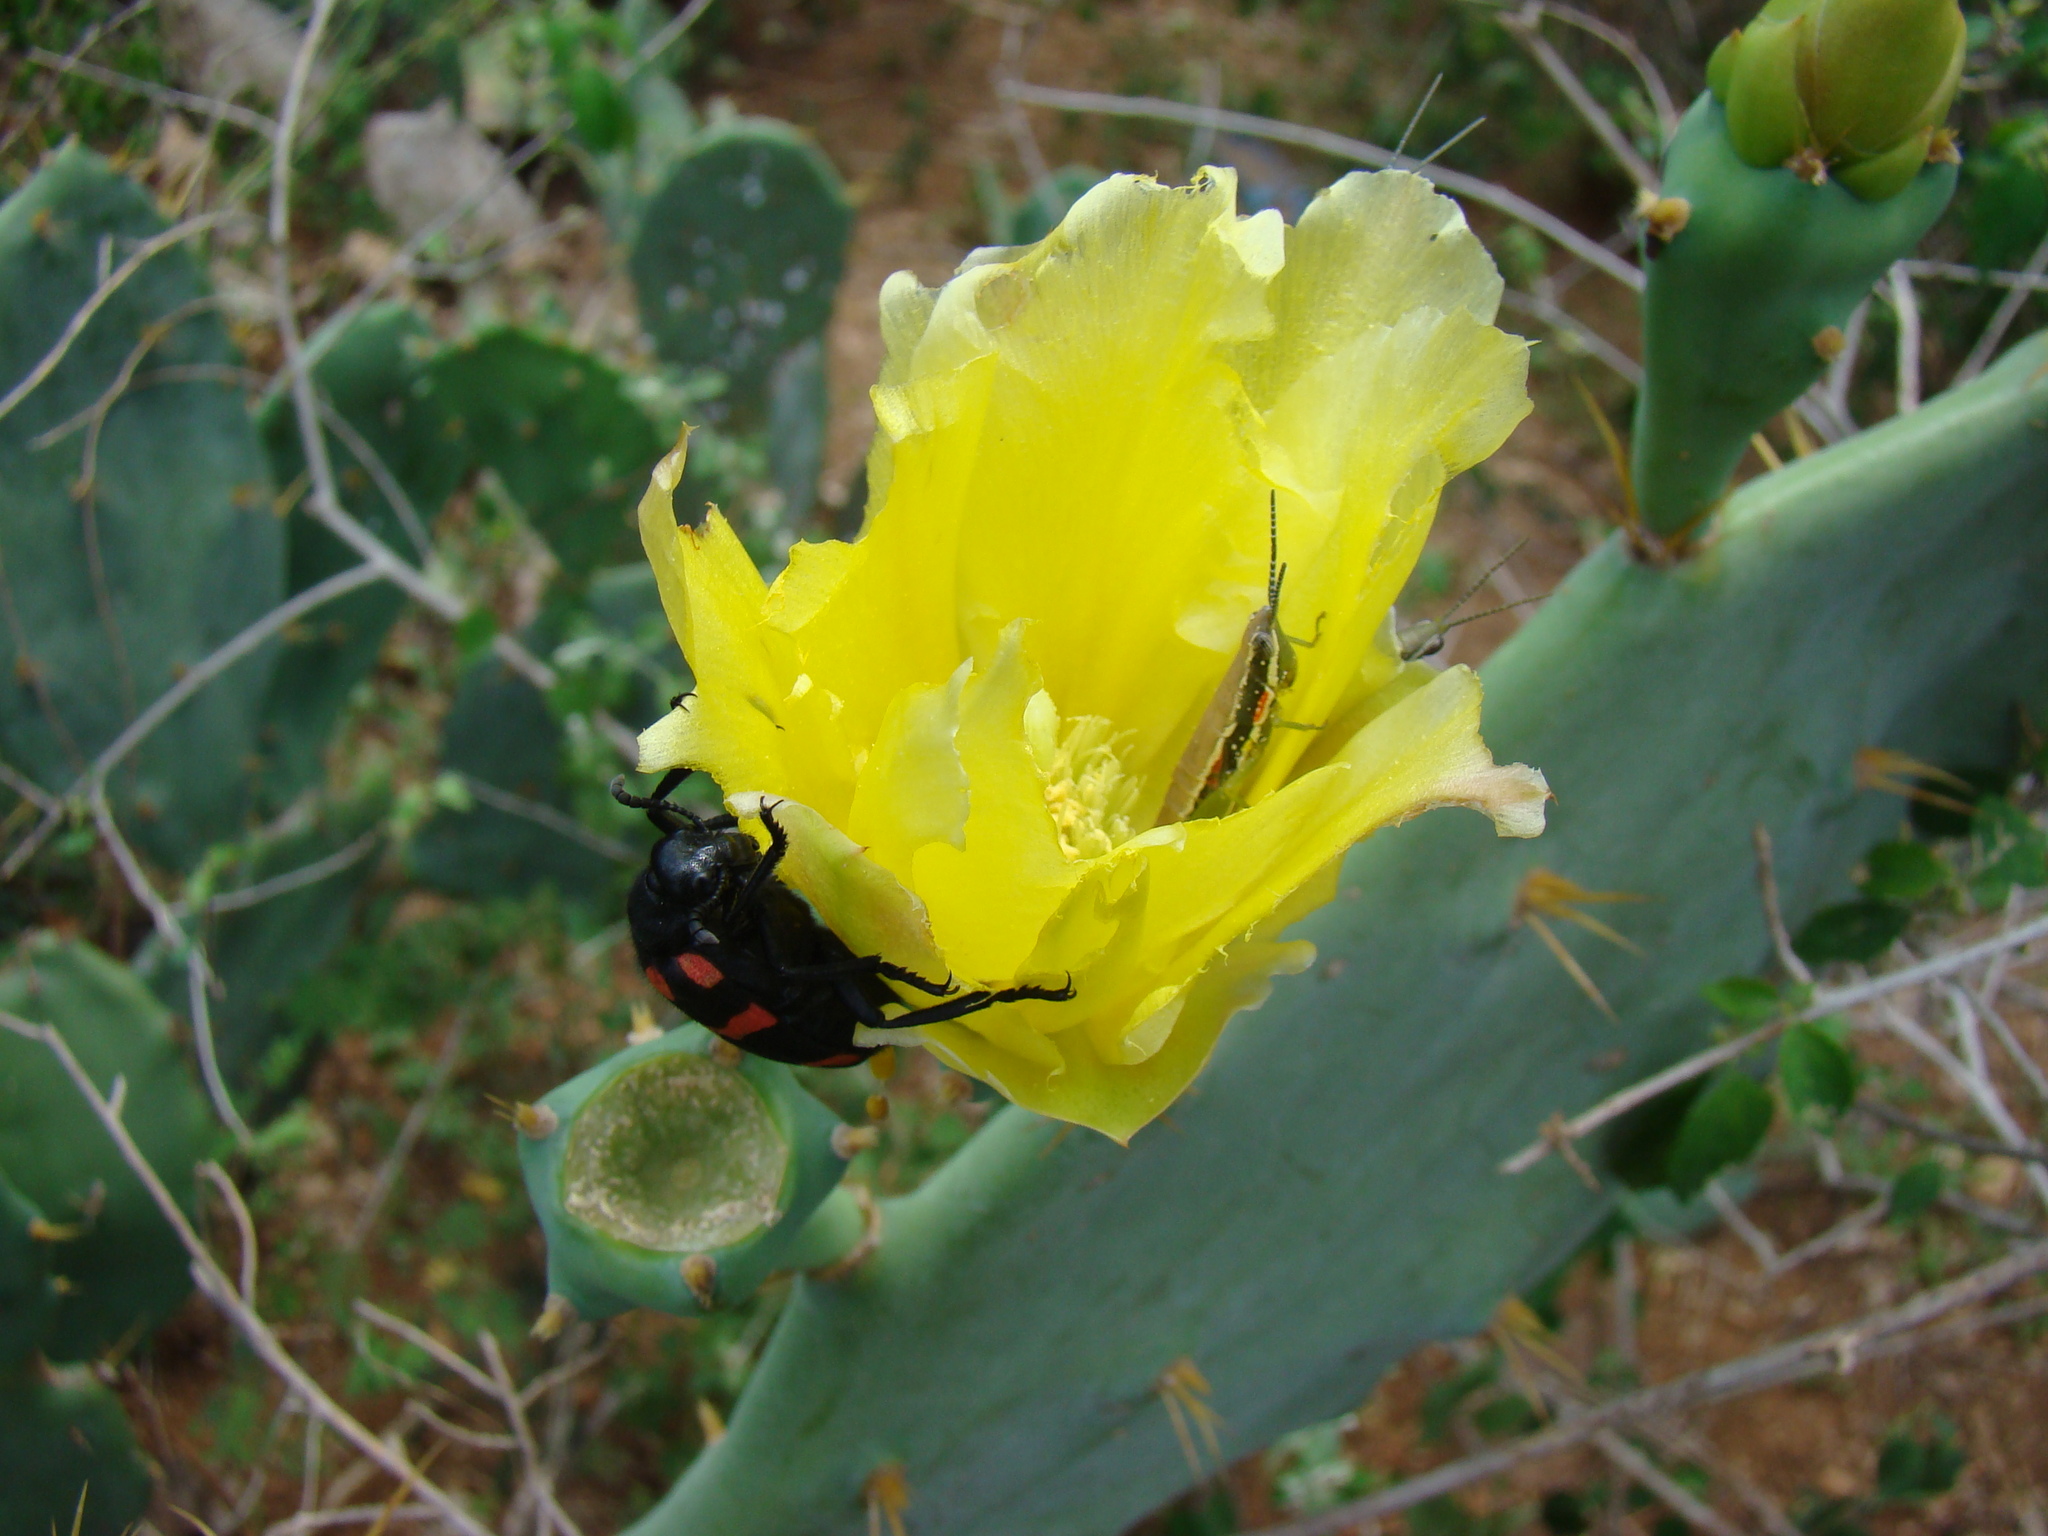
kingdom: Animalia
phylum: Arthropoda
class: Insecta
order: Coleoptera
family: Meloidae
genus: Hycleus
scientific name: Hycleus biundulatus
